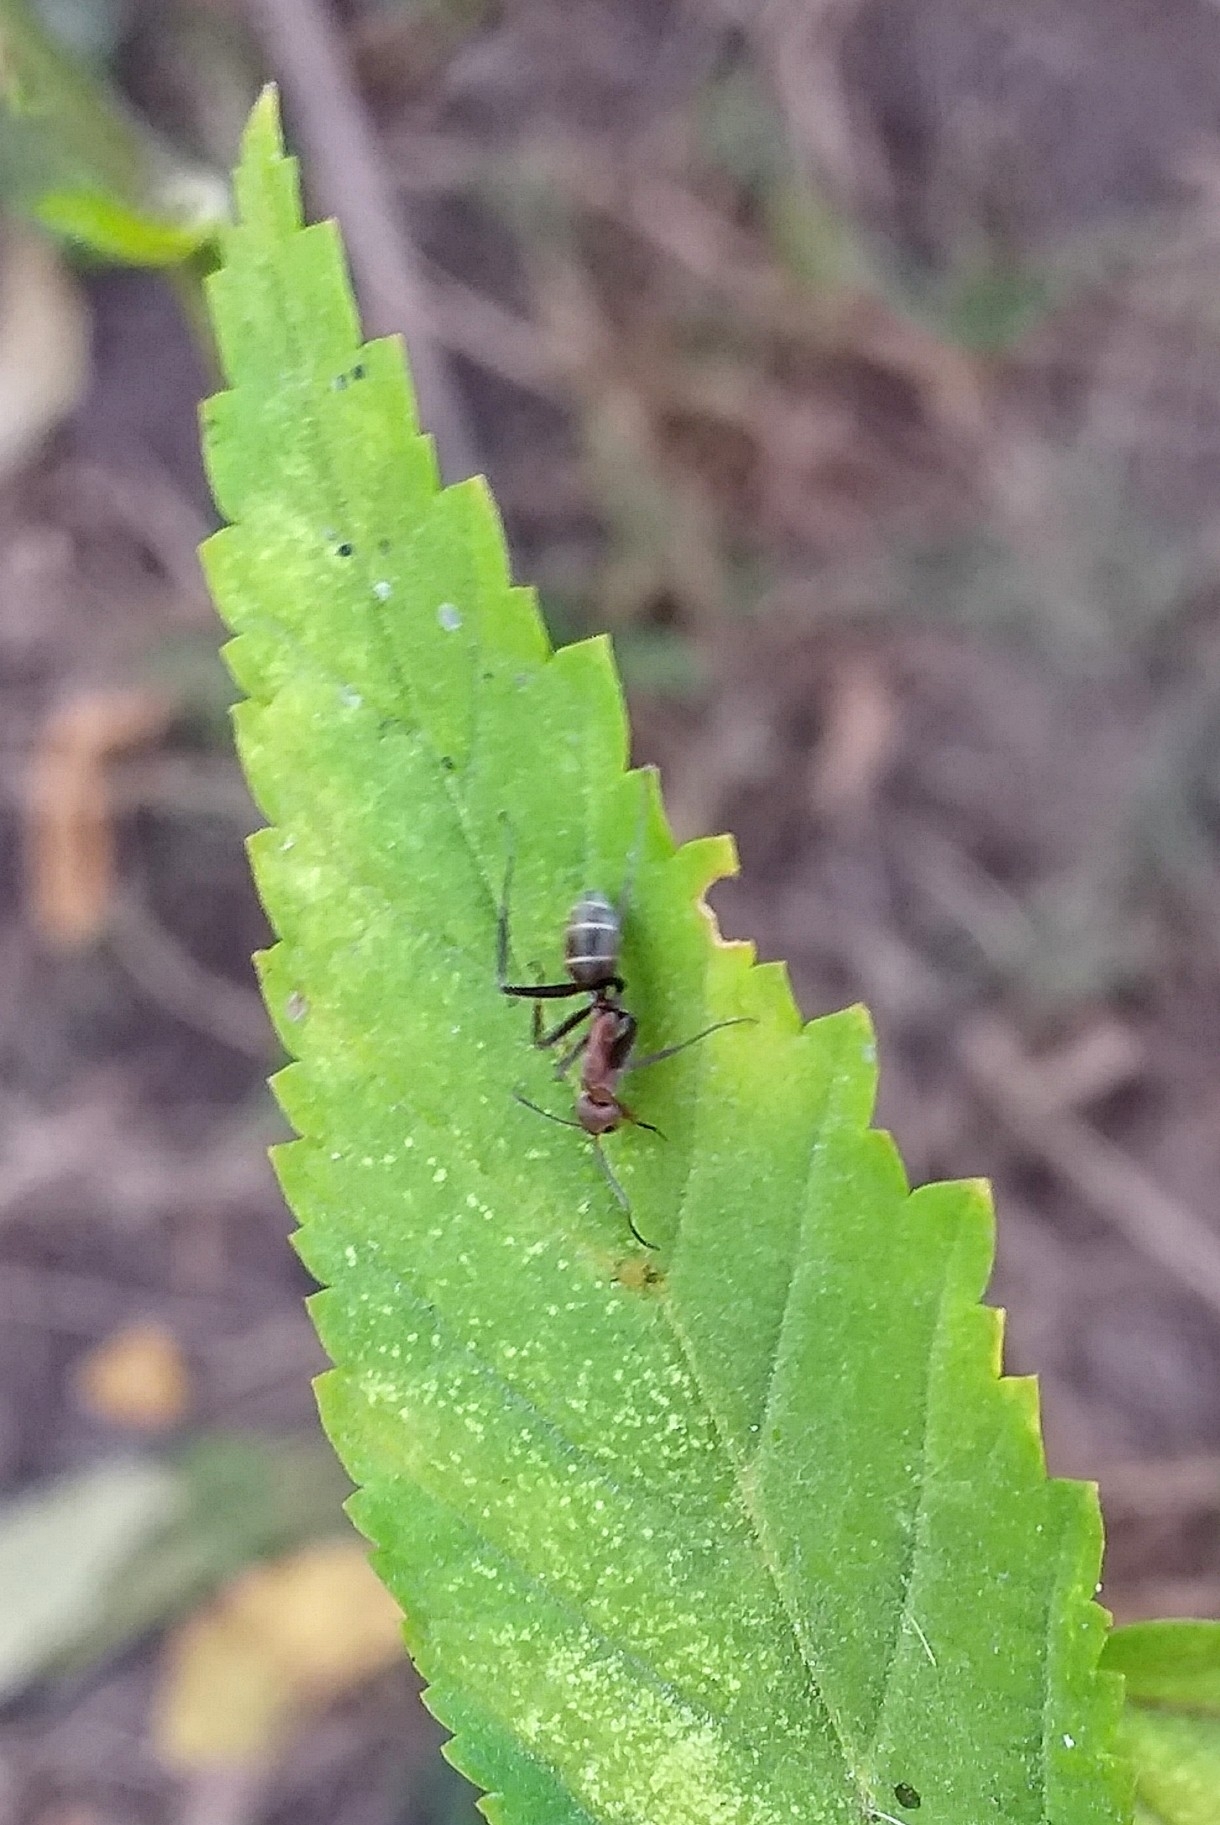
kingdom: Animalia
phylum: Arthropoda
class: Insecta
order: Hymenoptera
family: Formicidae
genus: Camponotus
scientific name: Camponotus rufoglaucus
